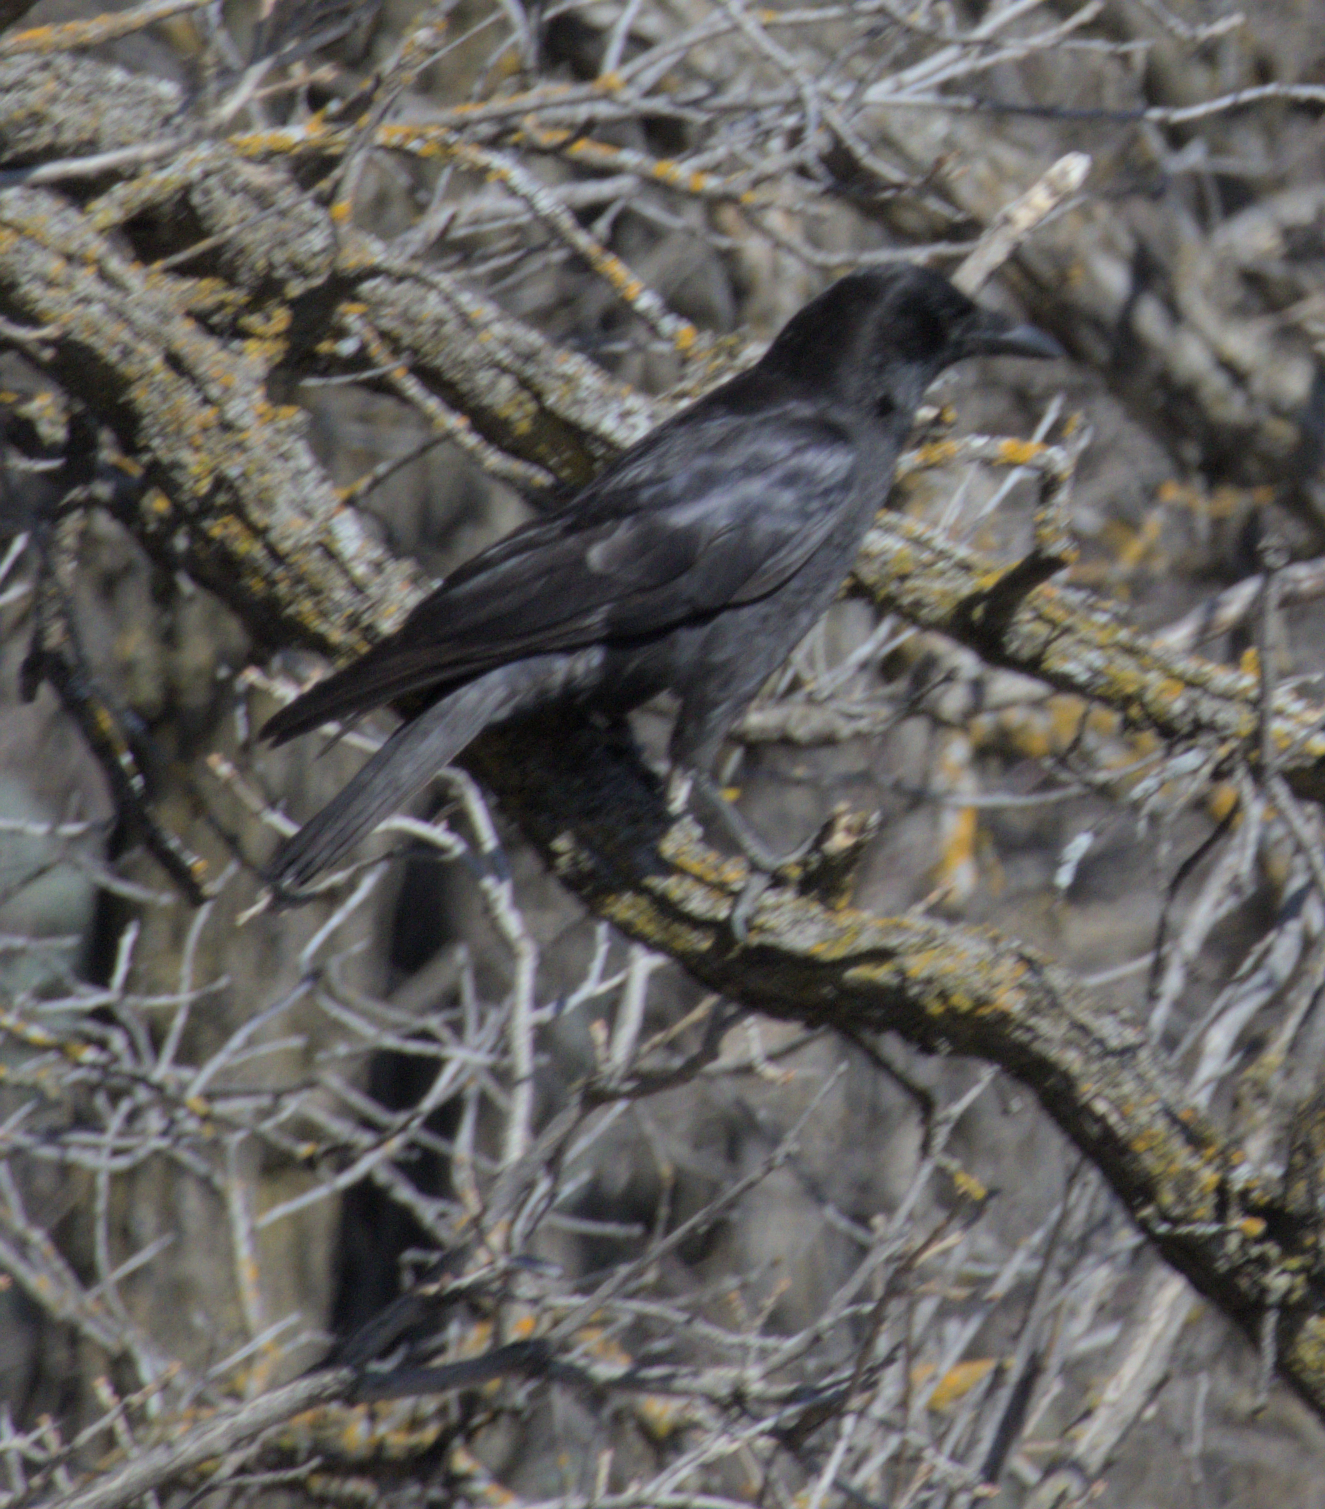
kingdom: Animalia
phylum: Chordata
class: Aves
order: Passeriformes
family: Corvidae
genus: Corvus
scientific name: Corvus brachyrhynchos
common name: American crow
